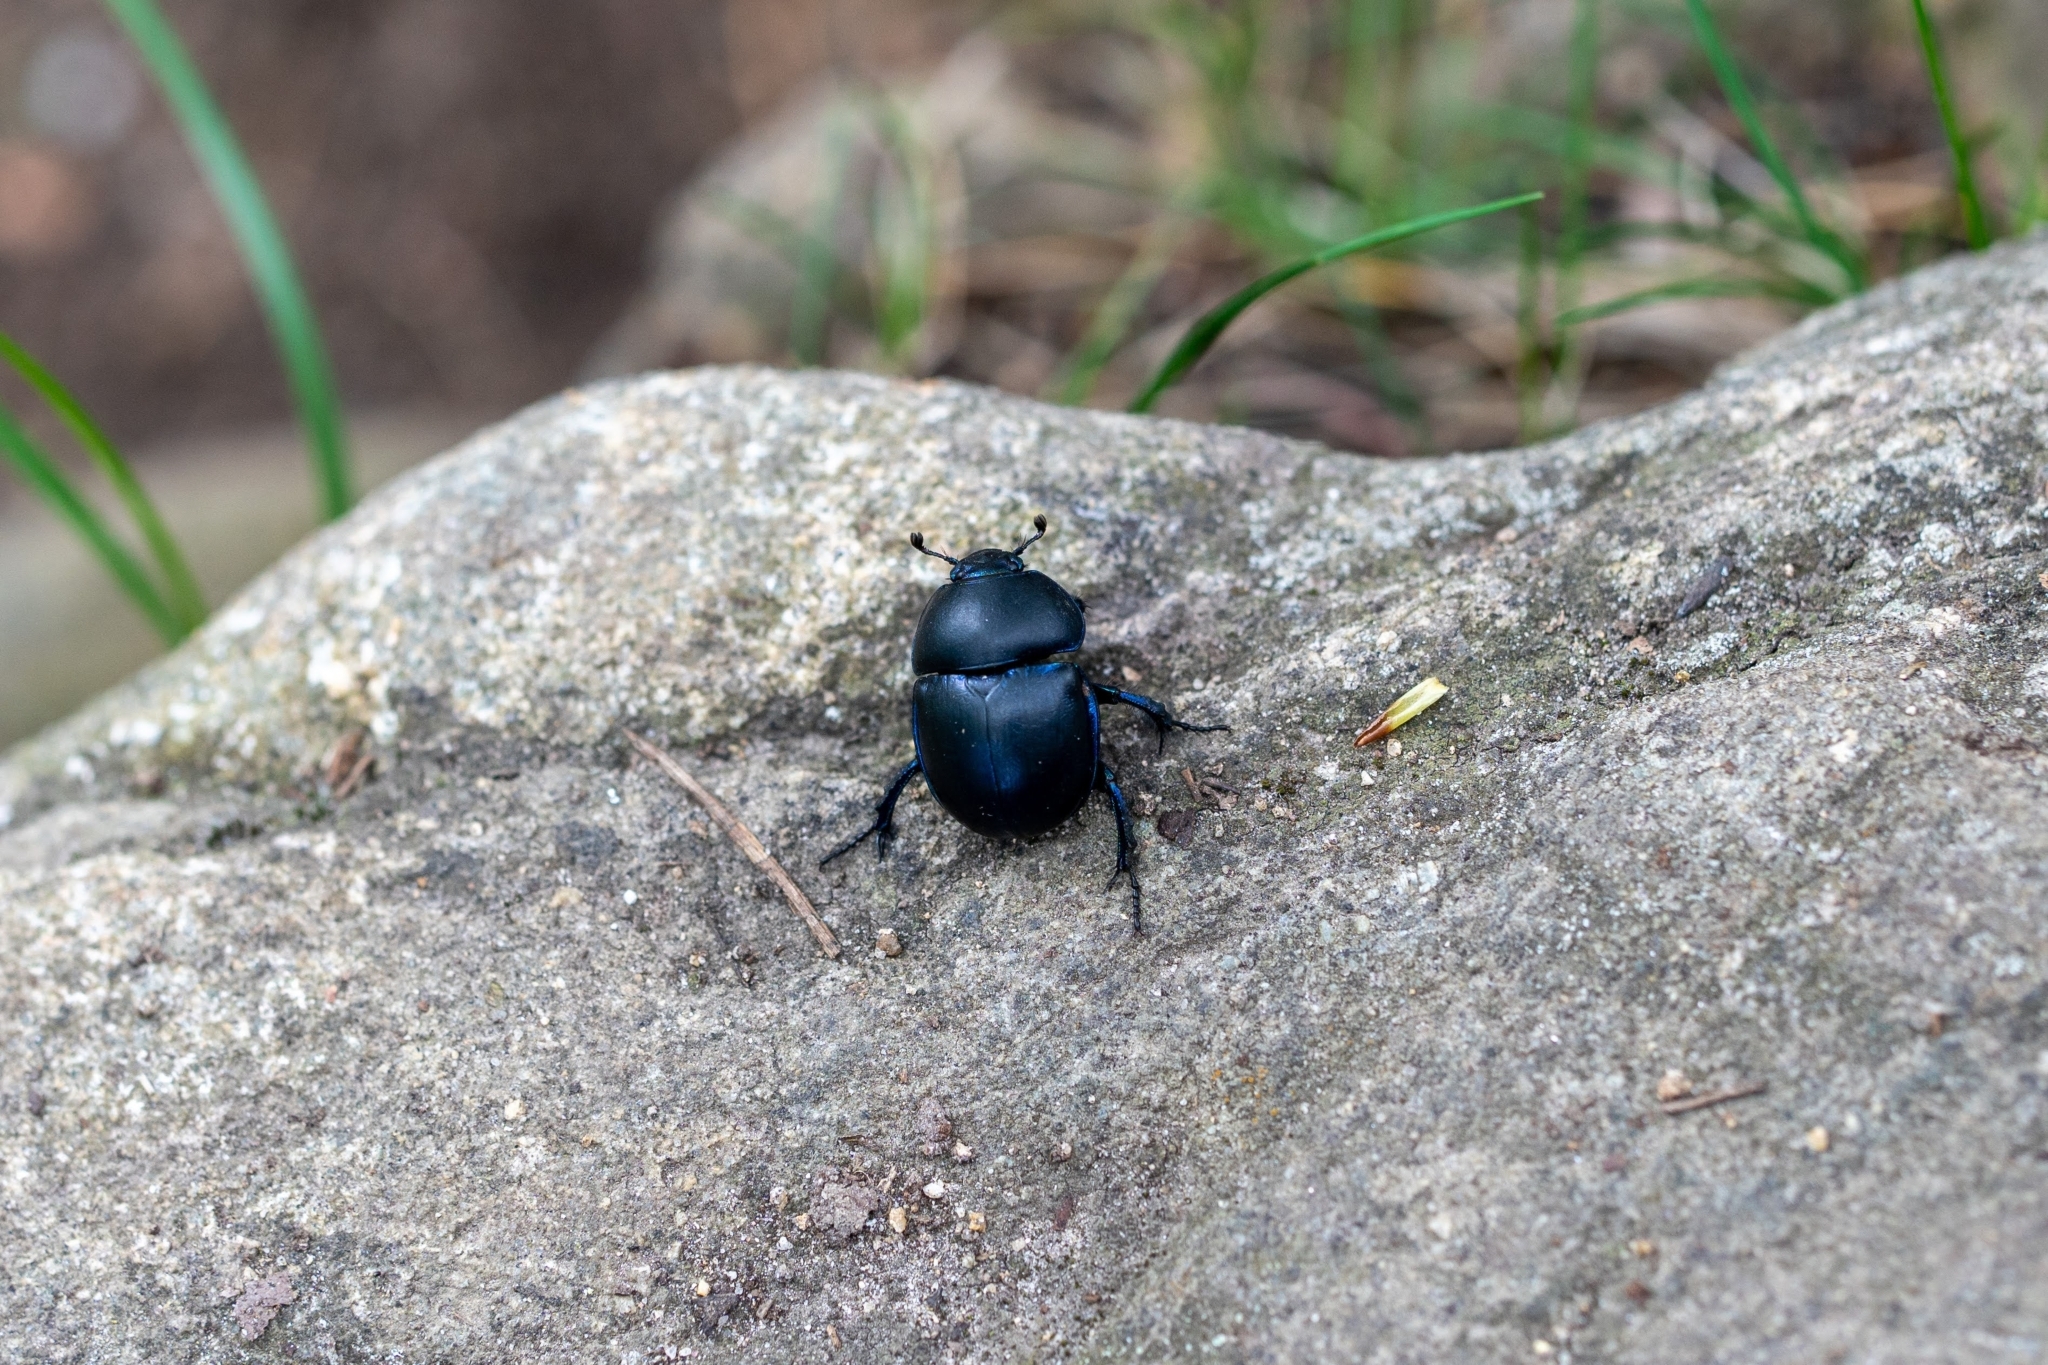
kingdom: Animalia
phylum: Arthropoda
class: Insecta
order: Coleoptera
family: Geotrupidae
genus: Trypocopris
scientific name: Trypocopris vernalis
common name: Spring dumbledor
